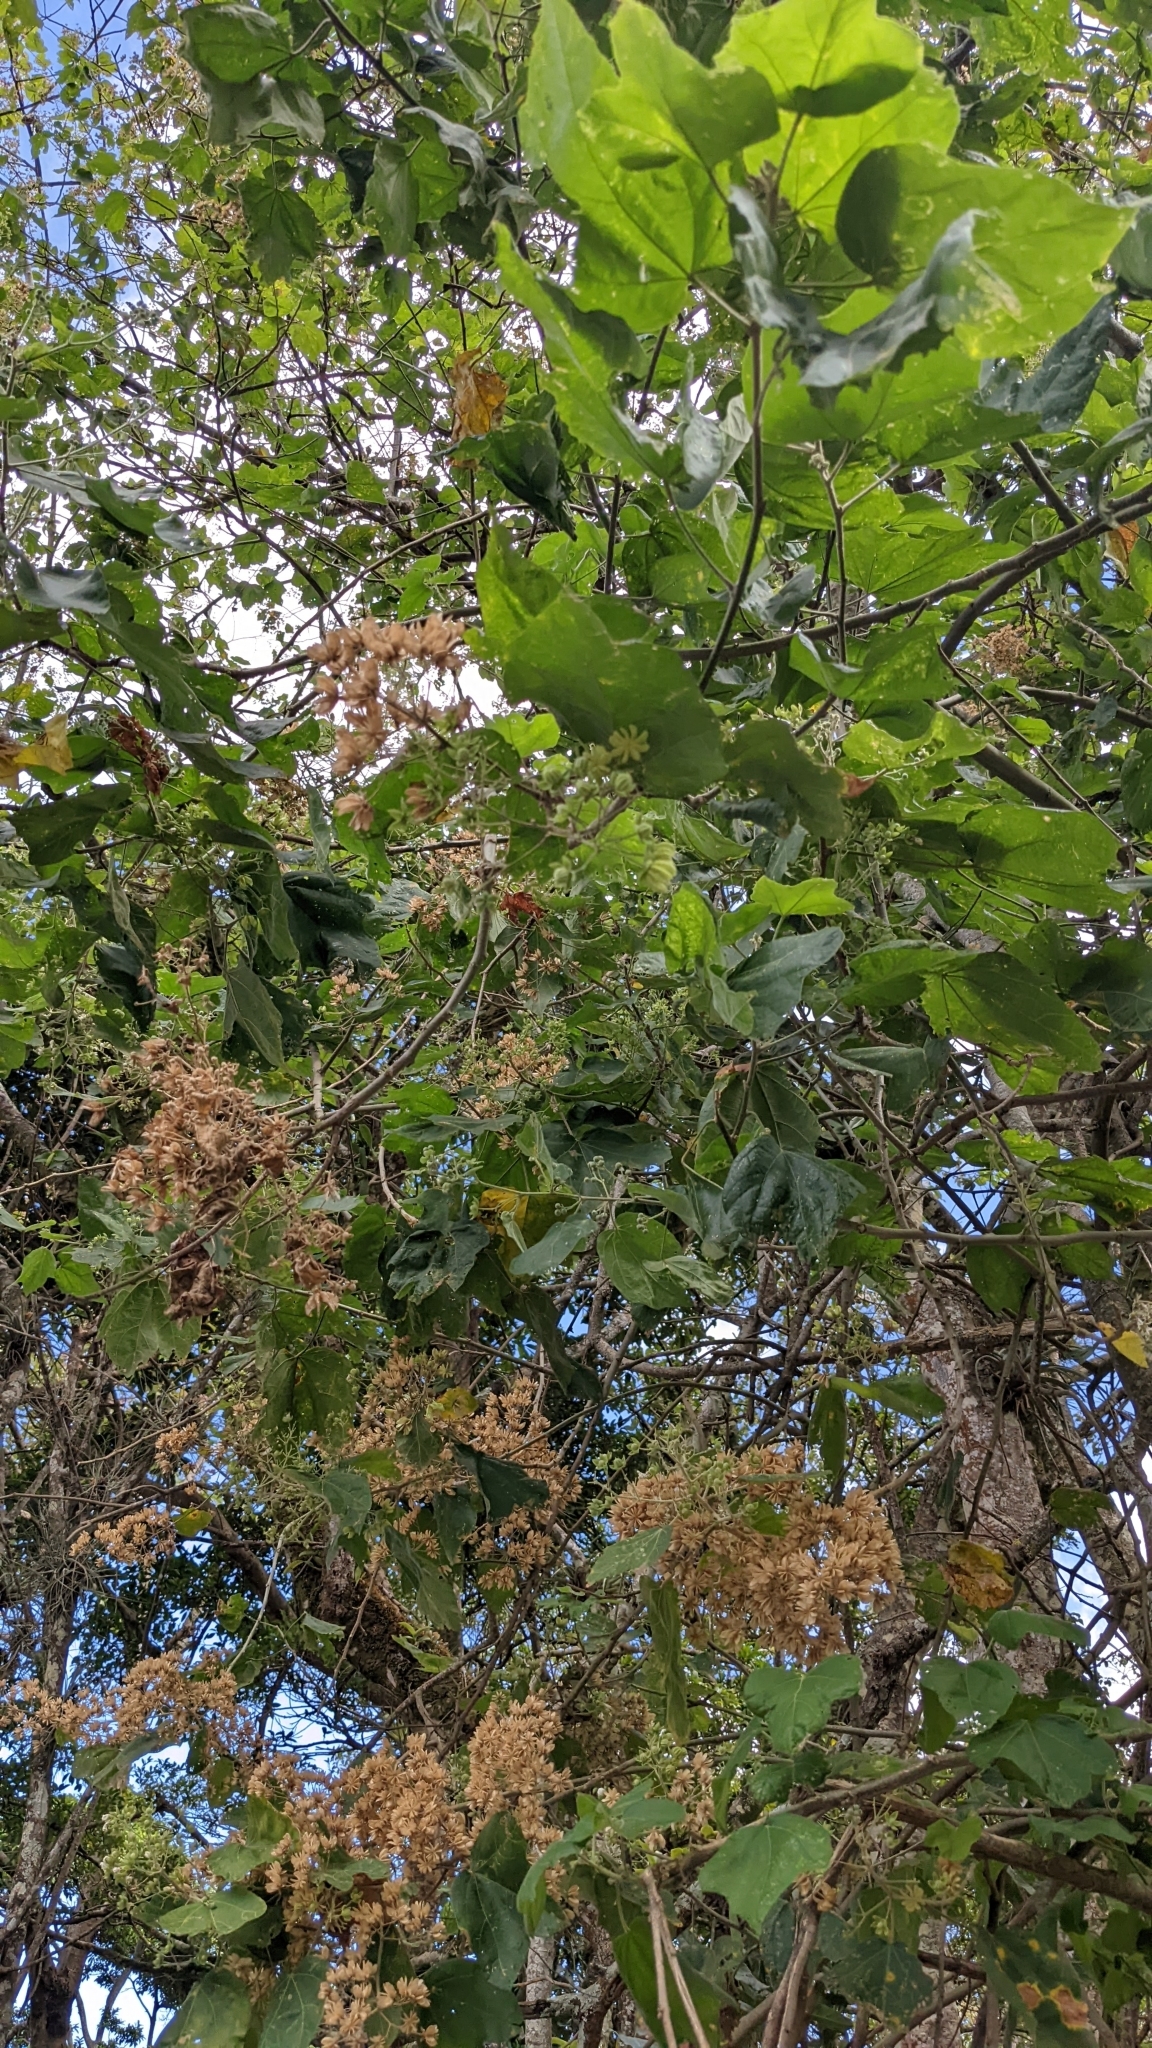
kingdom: Plantae
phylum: Tracheophyta
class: Magnoliopsida
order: Malvales
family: Malvaceae
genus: Robinsonella
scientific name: Robinsonella lindeniana
